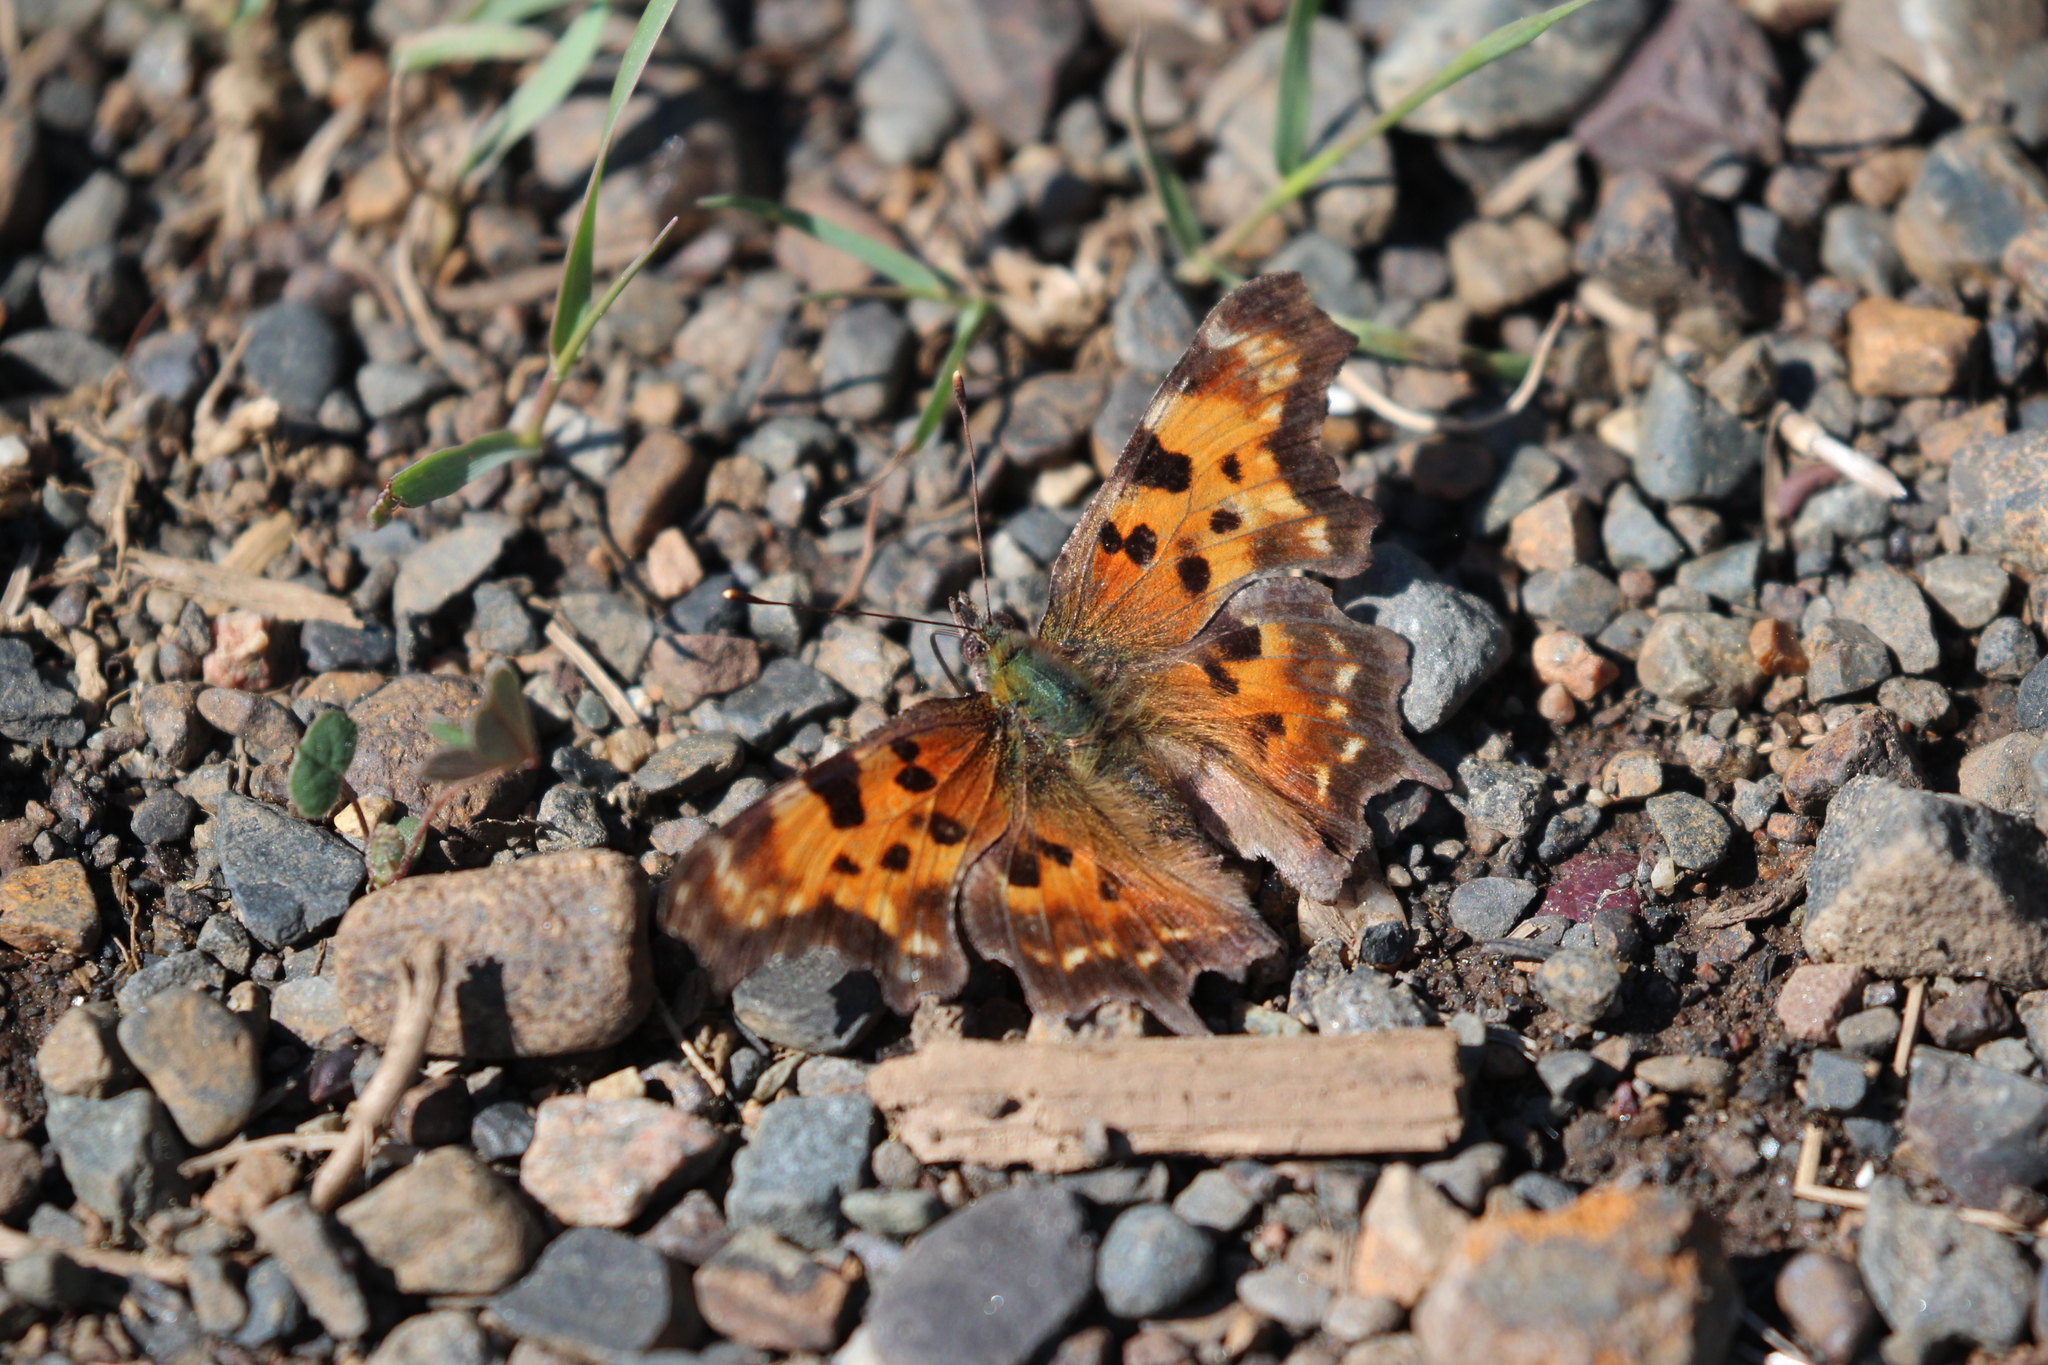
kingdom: Animalia
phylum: Arthropoda
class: Insecta
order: Lepidoptera
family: Nymphalidae
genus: Polygonia
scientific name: Polygonia faunus
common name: Green comma
